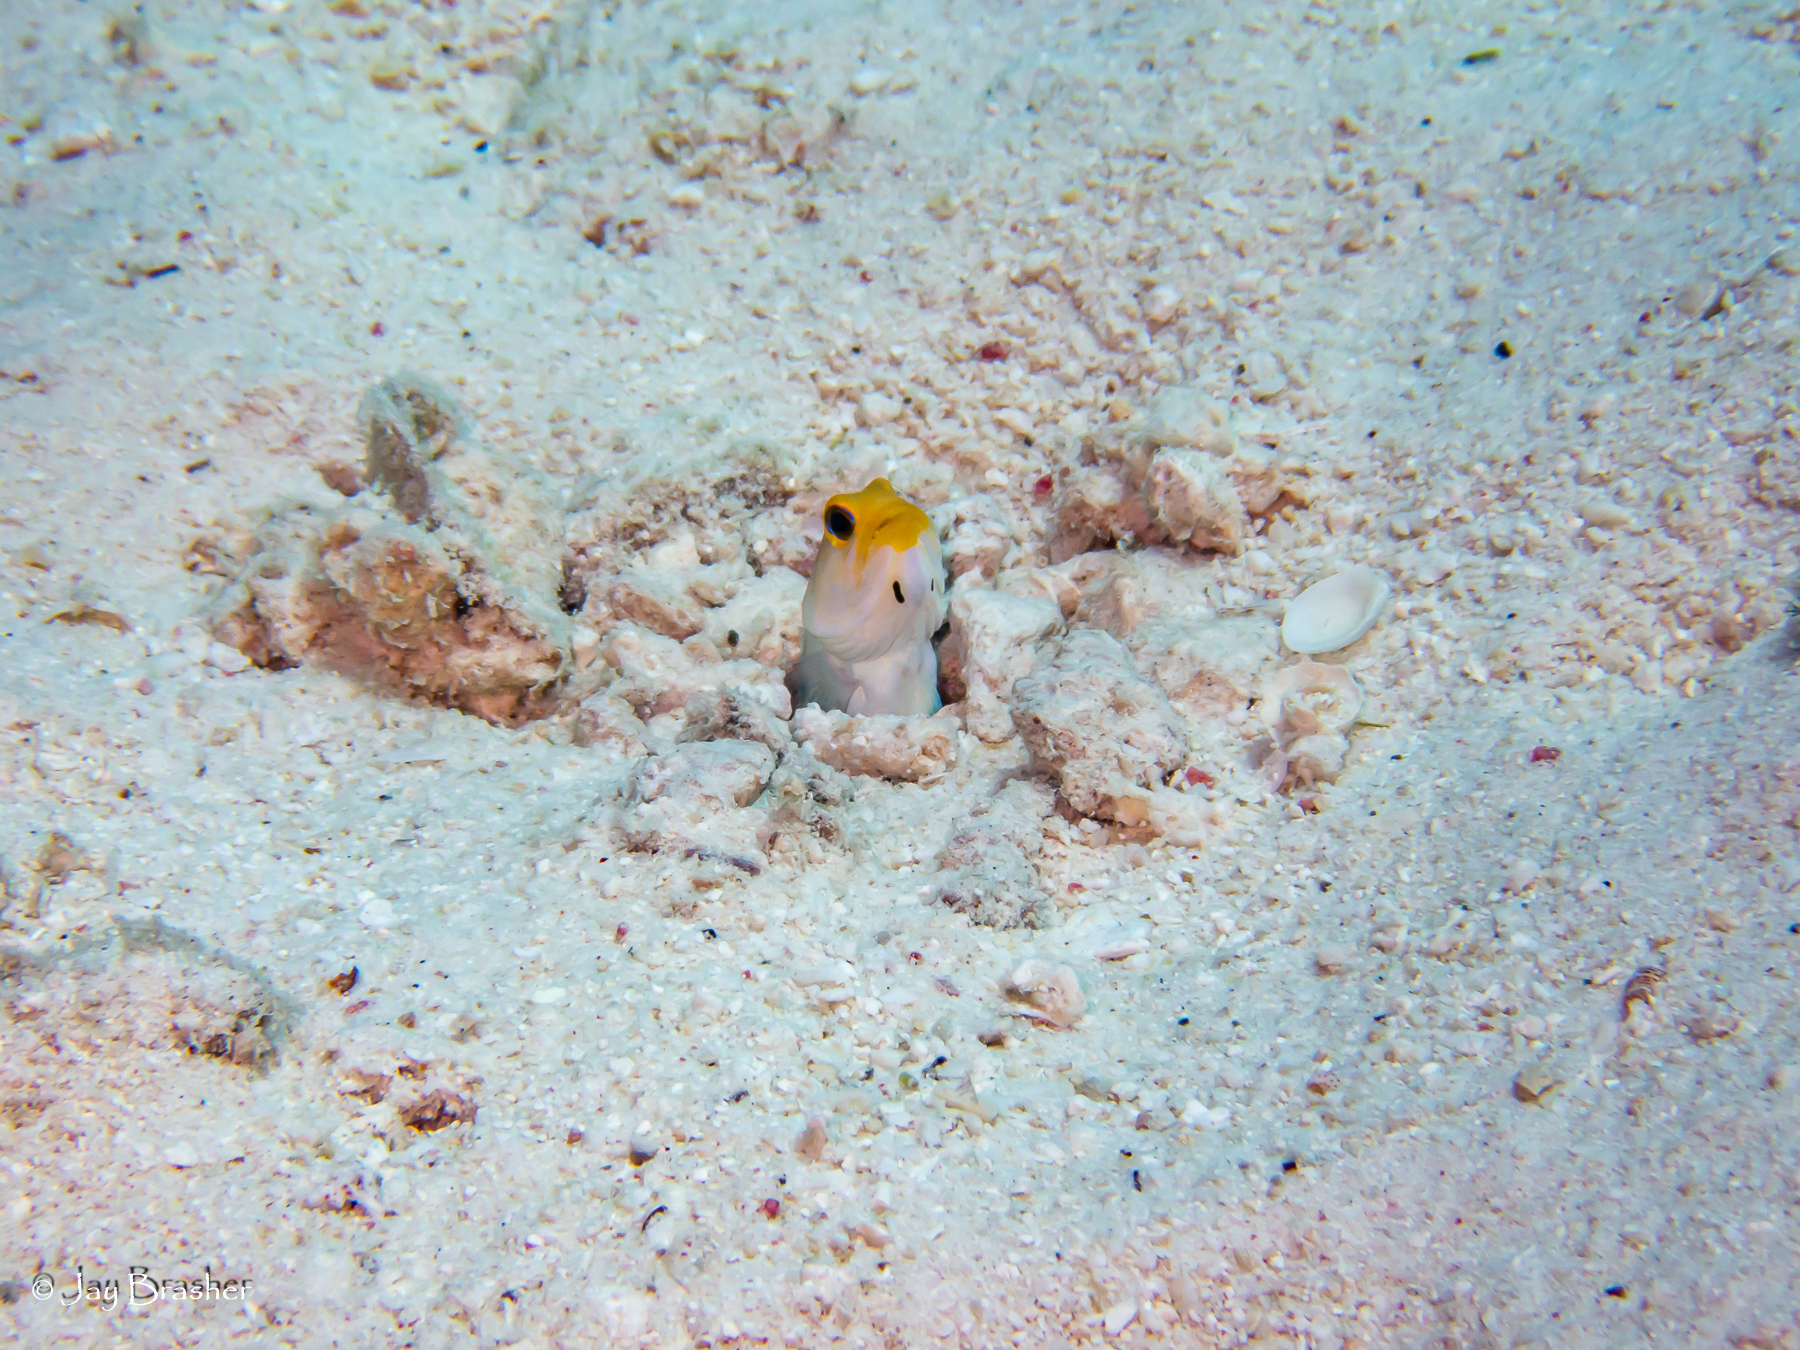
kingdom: Animalia
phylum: Chordata
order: Perciformes
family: Opistognathidae
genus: Opistognathus
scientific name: Opistognathus aurifrons
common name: Yellowhead jawfish
